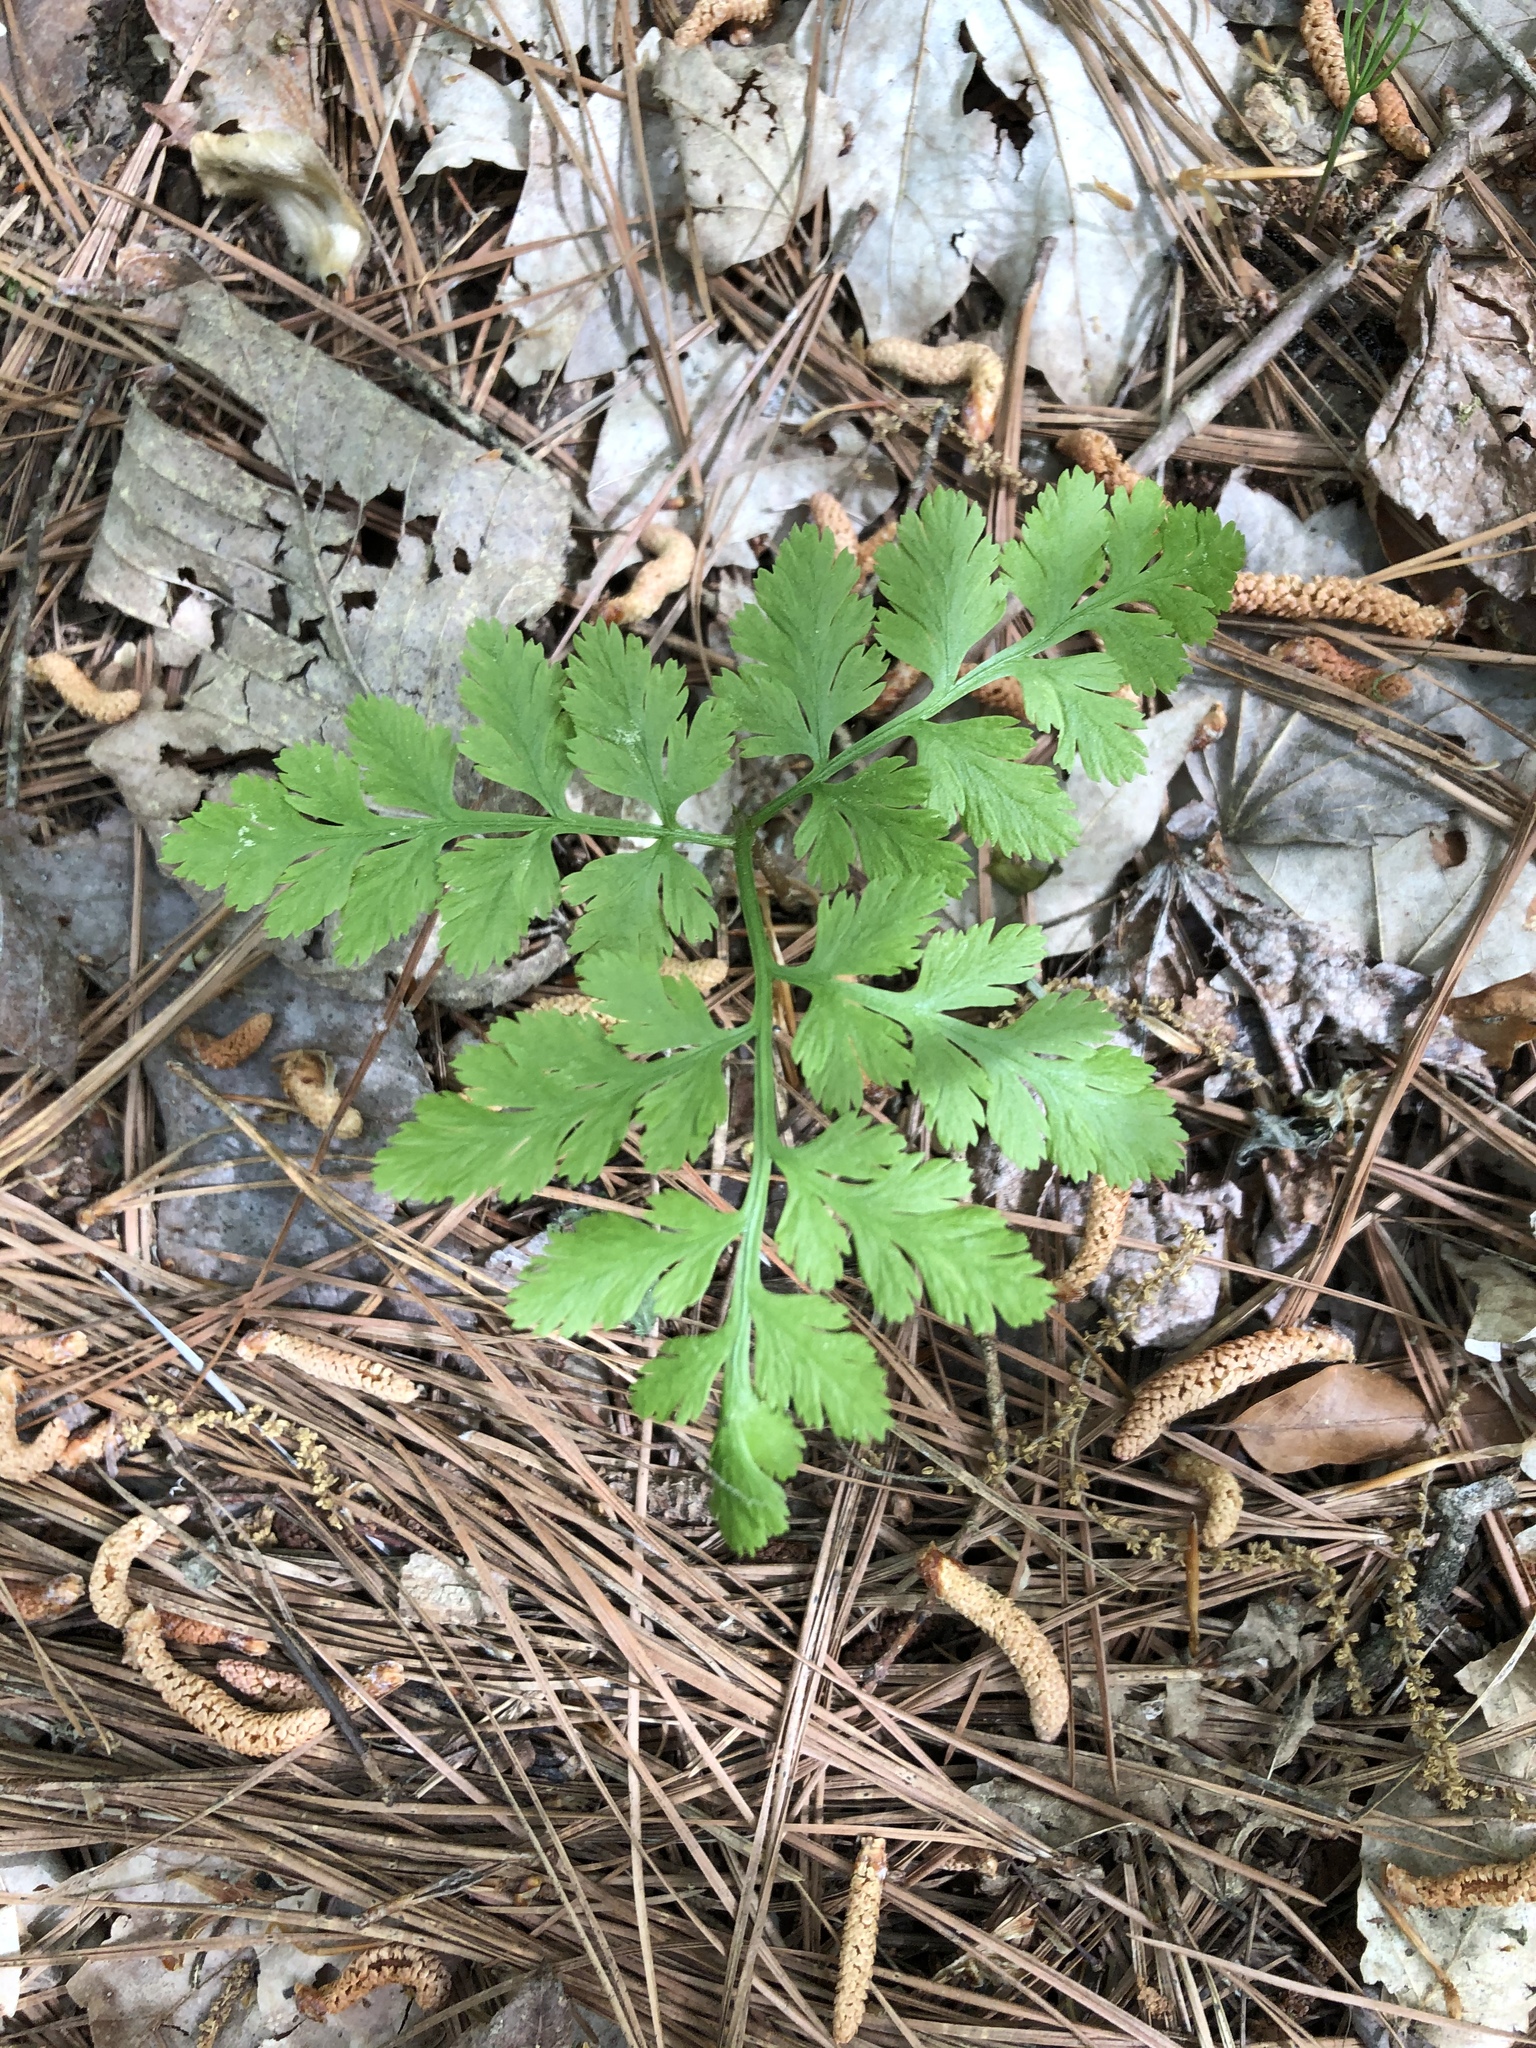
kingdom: Plantae
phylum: Tracheophyta
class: Polypodiopsida
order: Ophioglossales
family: Ophioglossaceae
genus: Botrypus
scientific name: Botrypus virginianus
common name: Common grapefern
